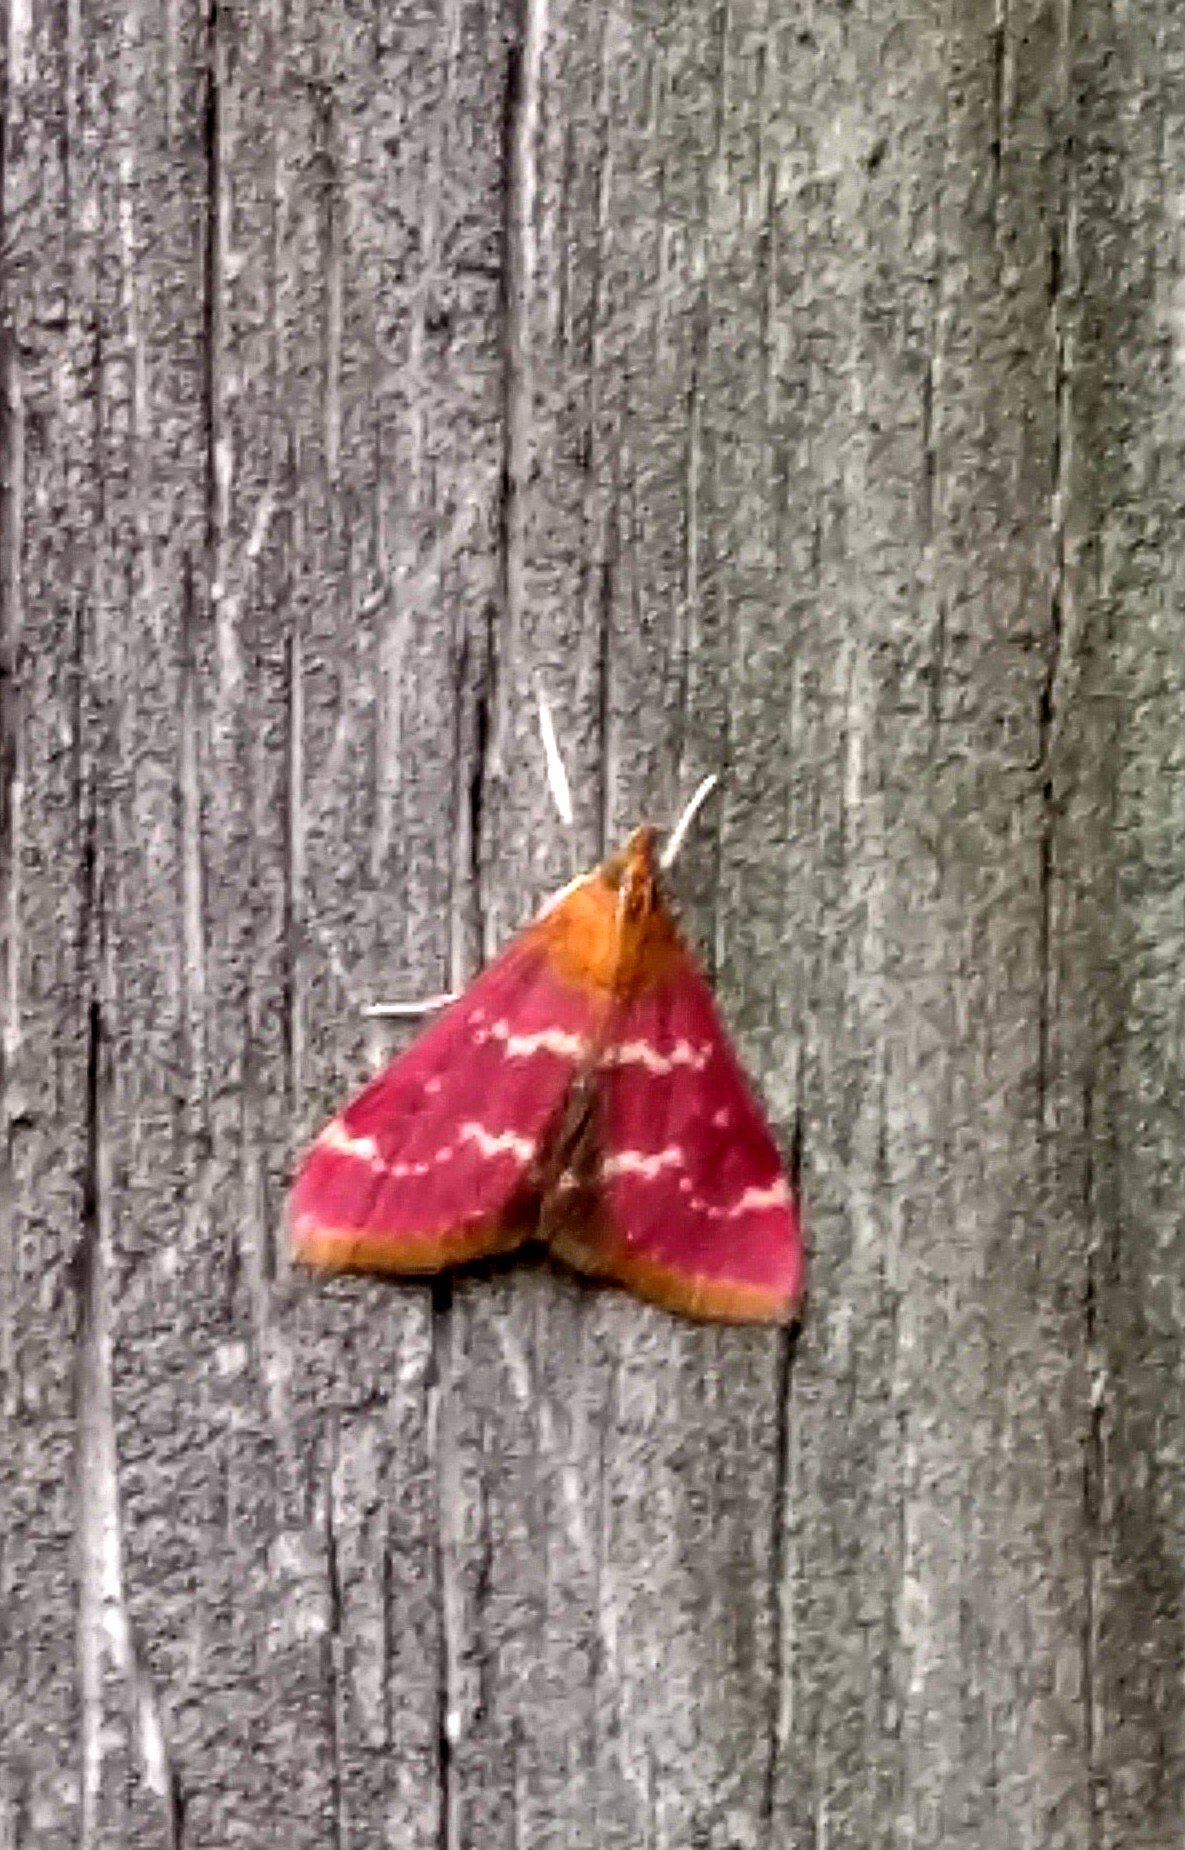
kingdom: Animalia
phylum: Arthropoda
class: Insecta
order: Lepidoptera
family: Crambidae
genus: Pyrausta
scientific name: Pyrausta signatalis
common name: Raspberry pyrausta moth
